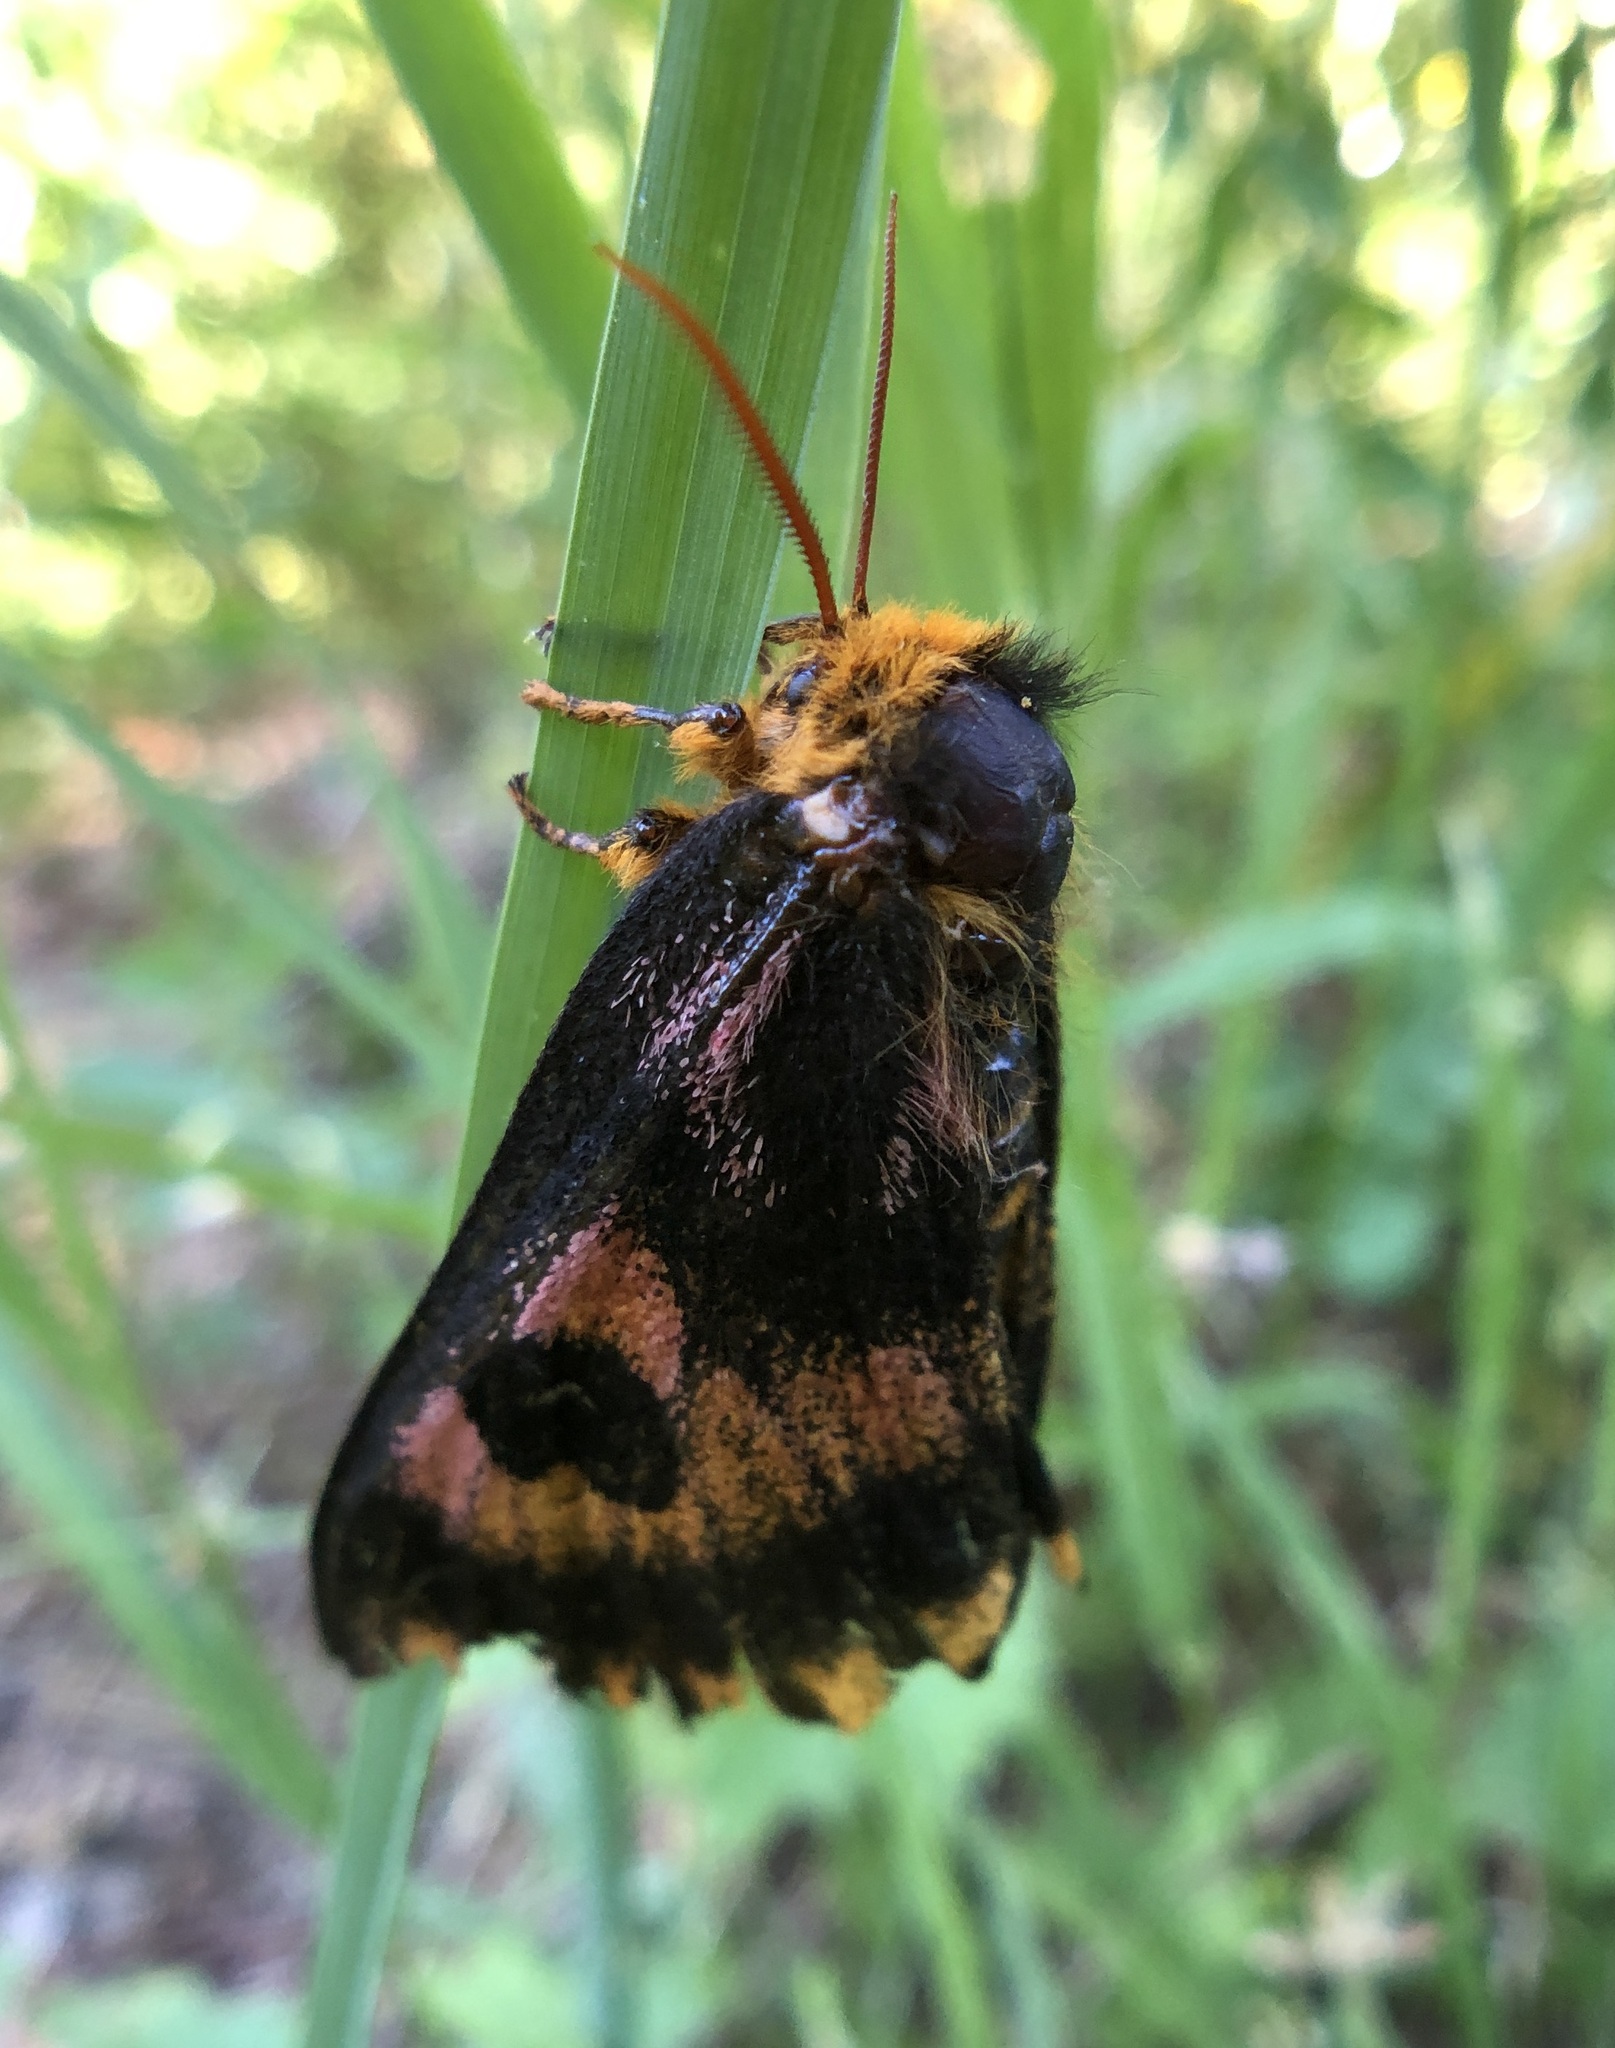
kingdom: Animalia
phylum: Arthropoda
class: Insecta
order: Lepidoptera
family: Saturniidae
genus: Hemileuca
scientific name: Hemileuca eglanterina
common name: Western sheepmoth
